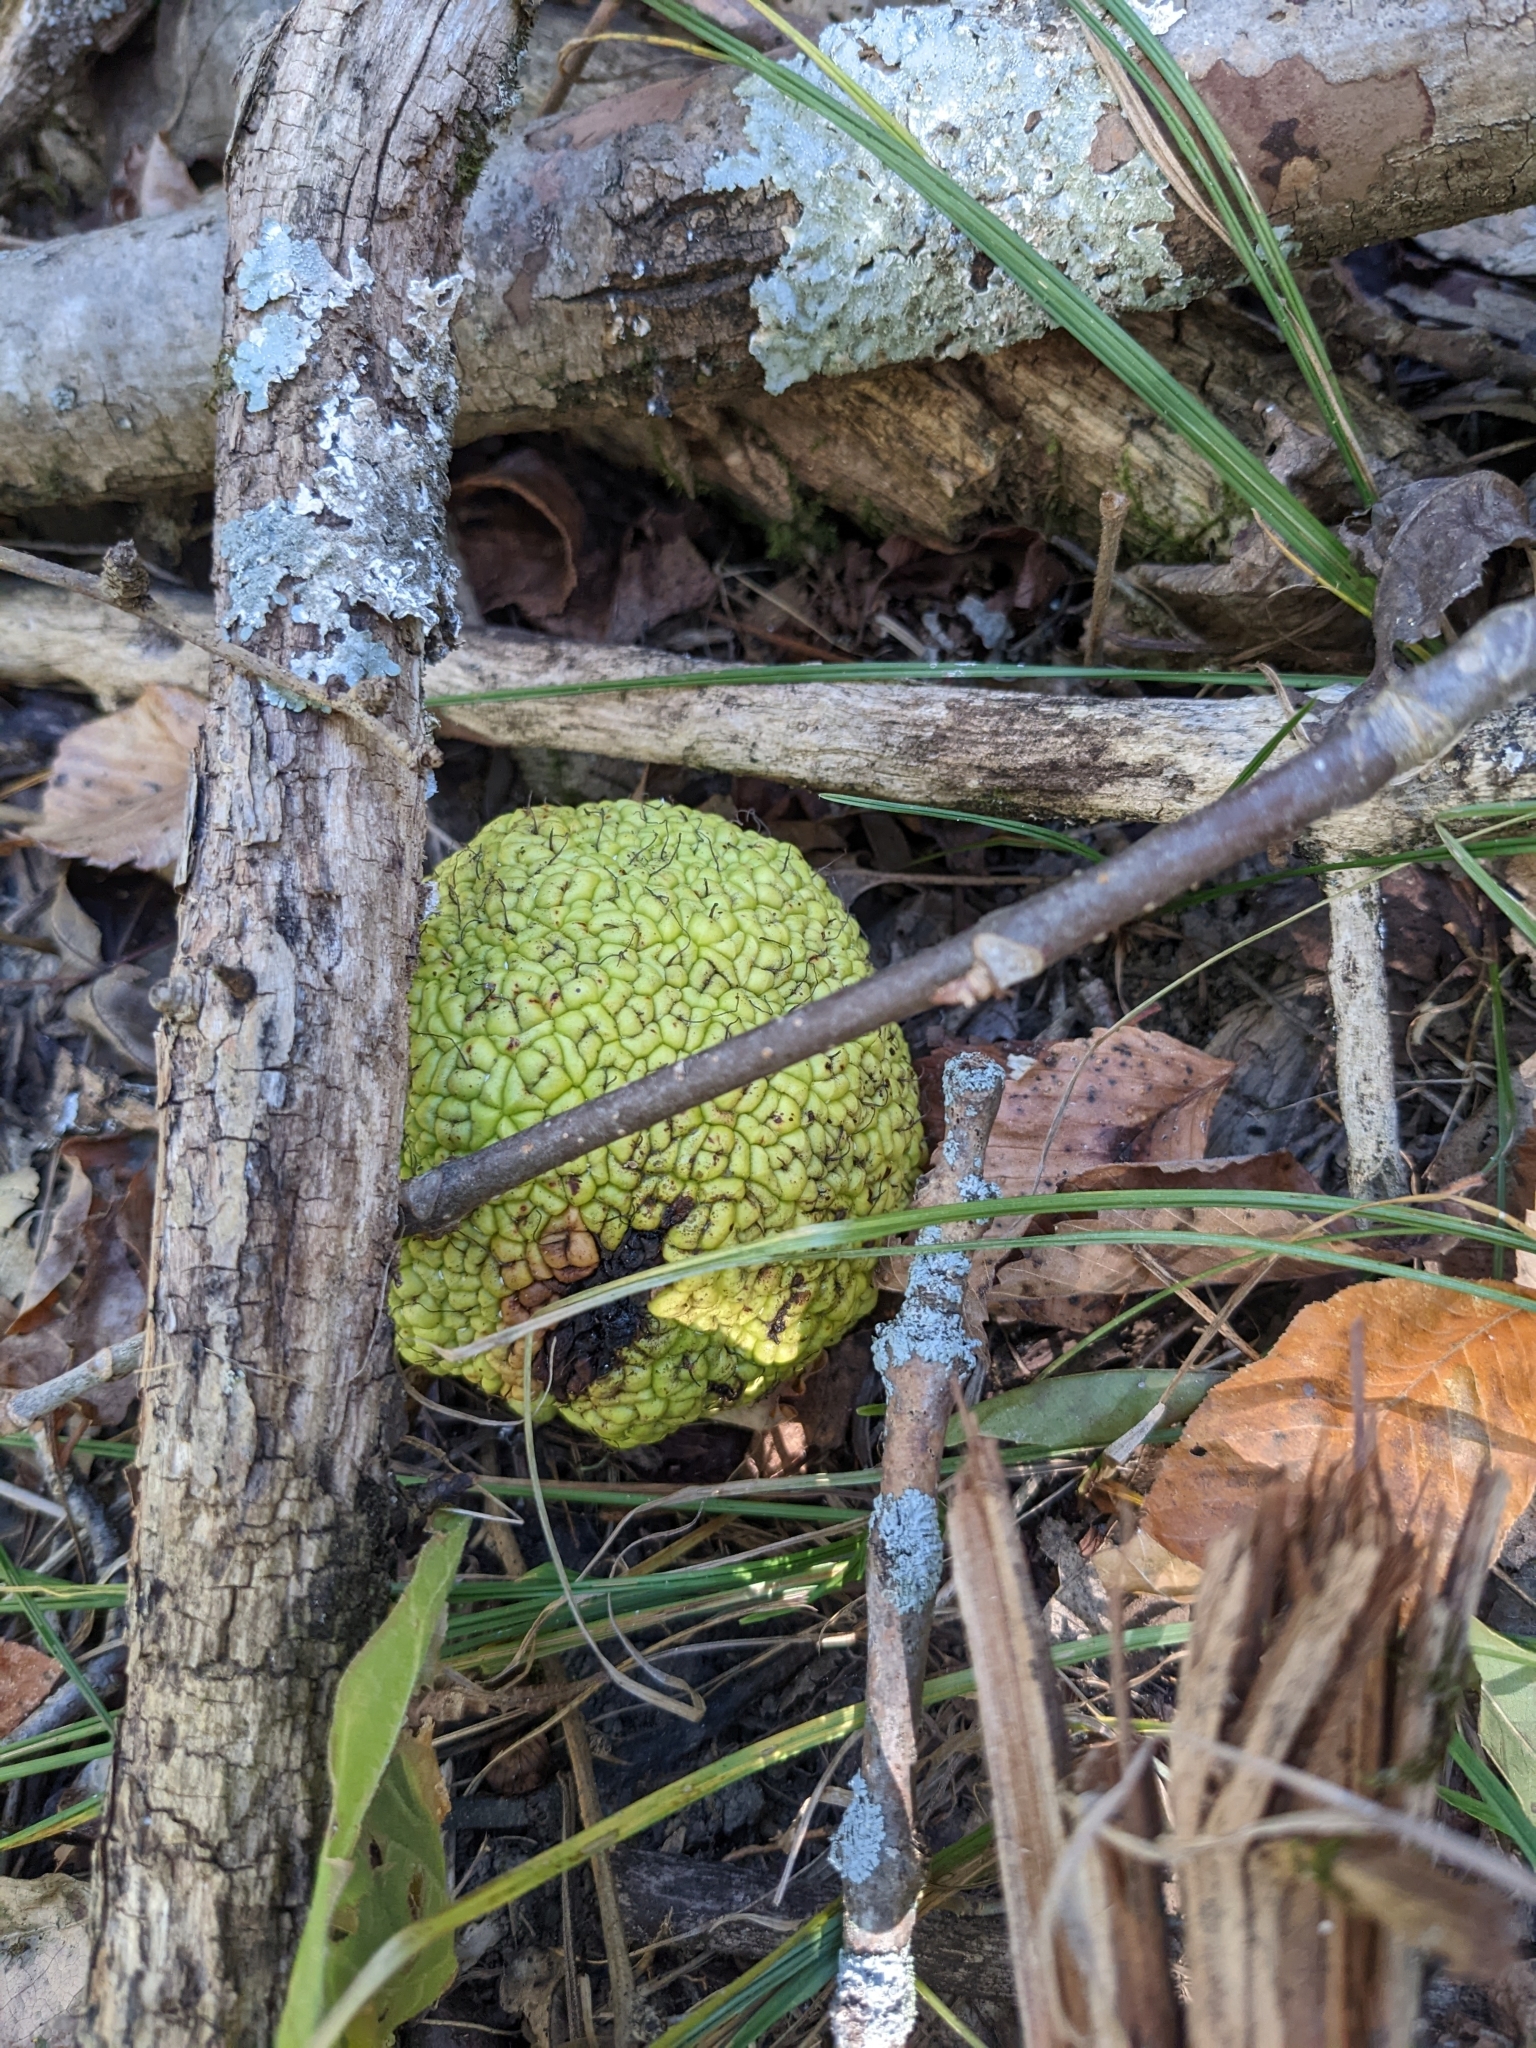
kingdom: Plantae
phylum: Tracheophyta
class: Magnoliopsida
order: Rosales
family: Moraceae
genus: Maclura
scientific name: Maclura pomifera
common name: Osage-orange
